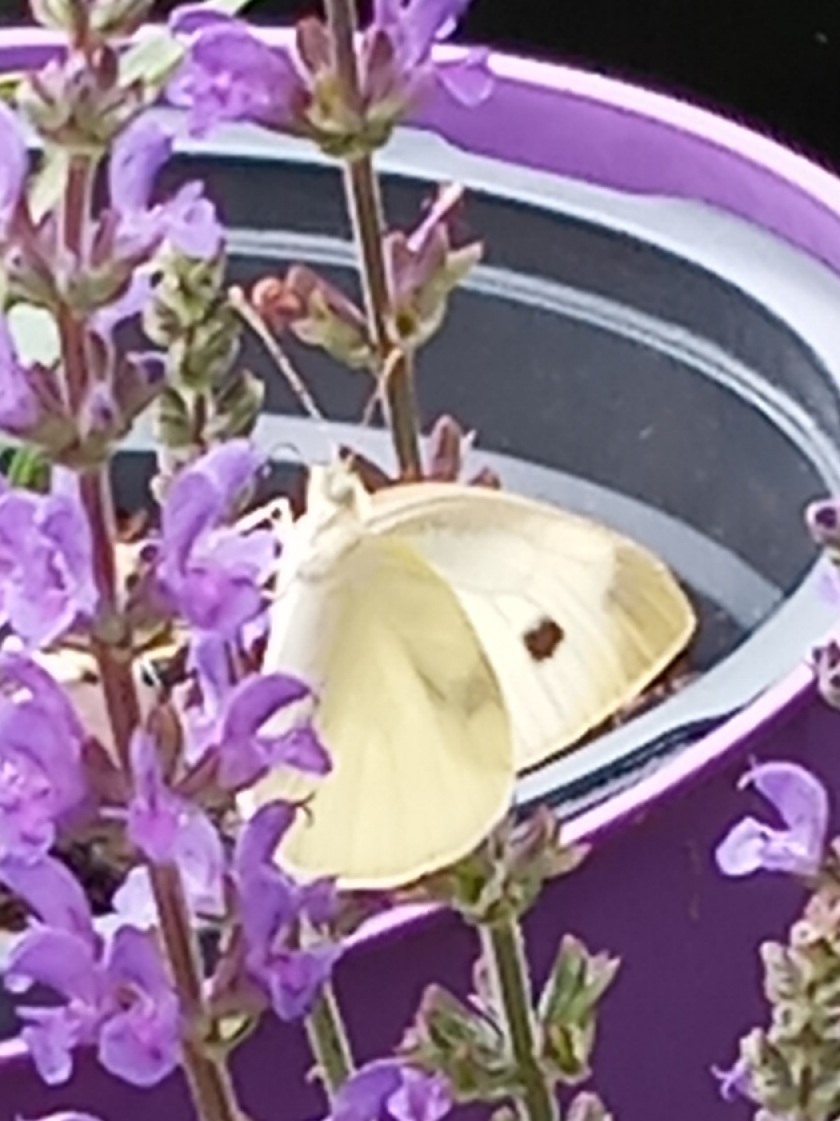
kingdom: Animalia
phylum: Arthropoda
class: Insecta
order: Lepidoptera
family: Pieridae
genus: Pieris
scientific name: Pieris rapae
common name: Small white
